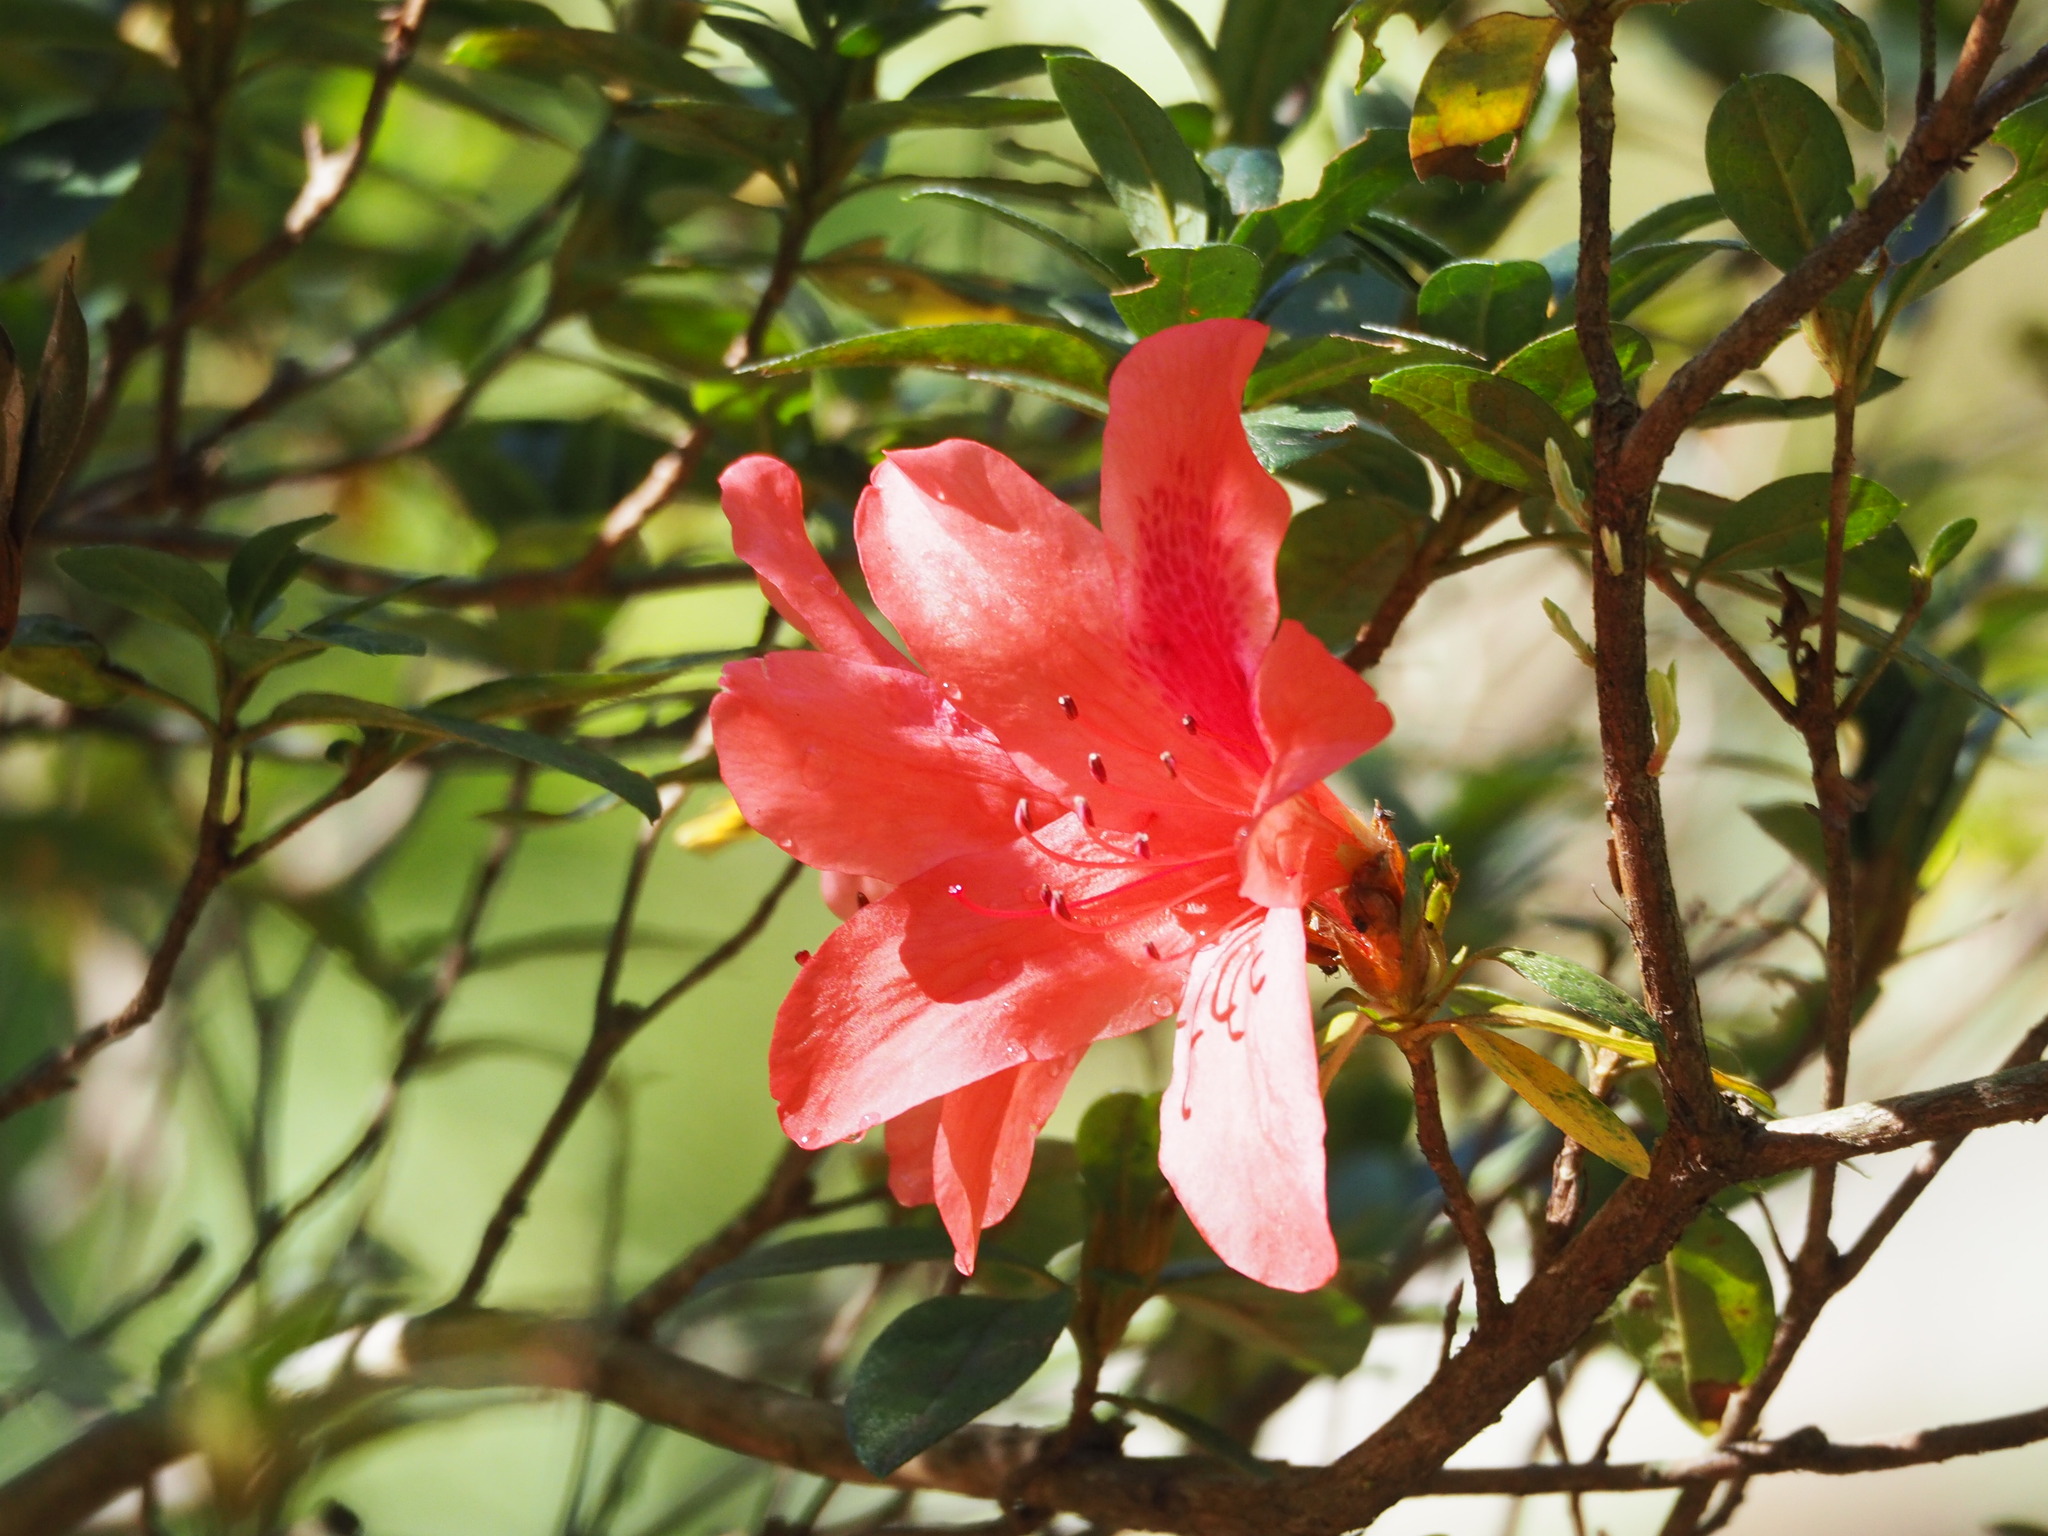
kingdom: Plantae
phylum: Tracheophyta
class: Magnoliopsida
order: Ericales
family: Ericaceae
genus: Rhododendron
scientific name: Rhododendron simsii
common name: Rhododendron
